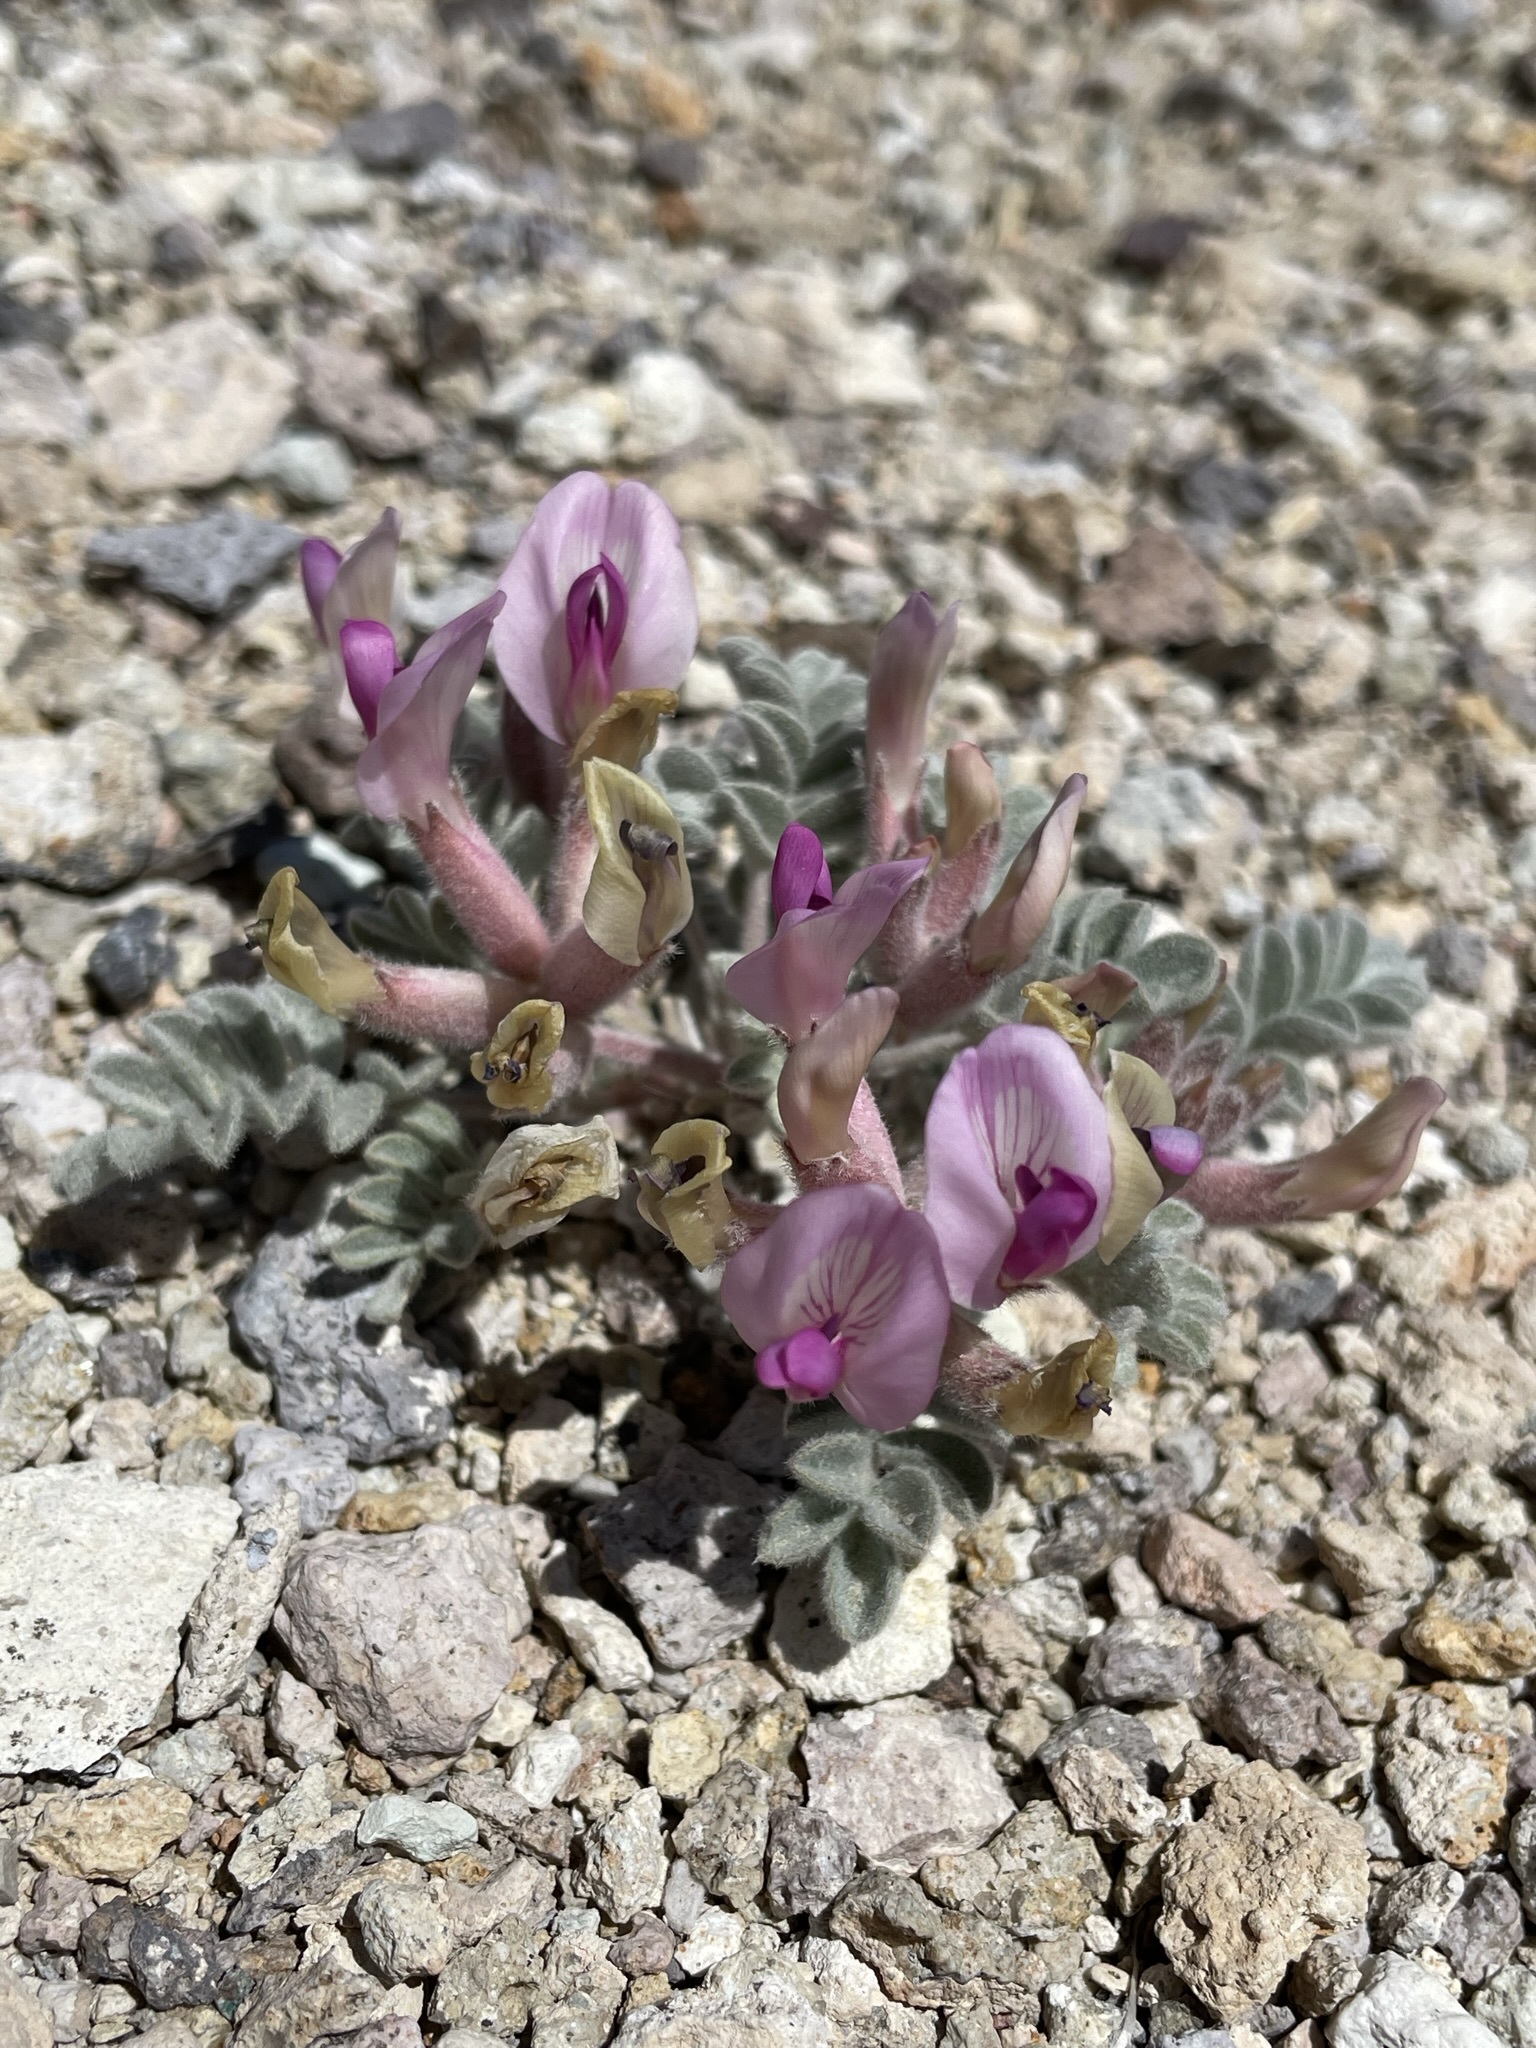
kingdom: Plantae
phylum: Tracheophyta
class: Magnoliopsida
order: Fabales
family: Fabaceae
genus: Astragalus
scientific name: Astragalus newberryi
